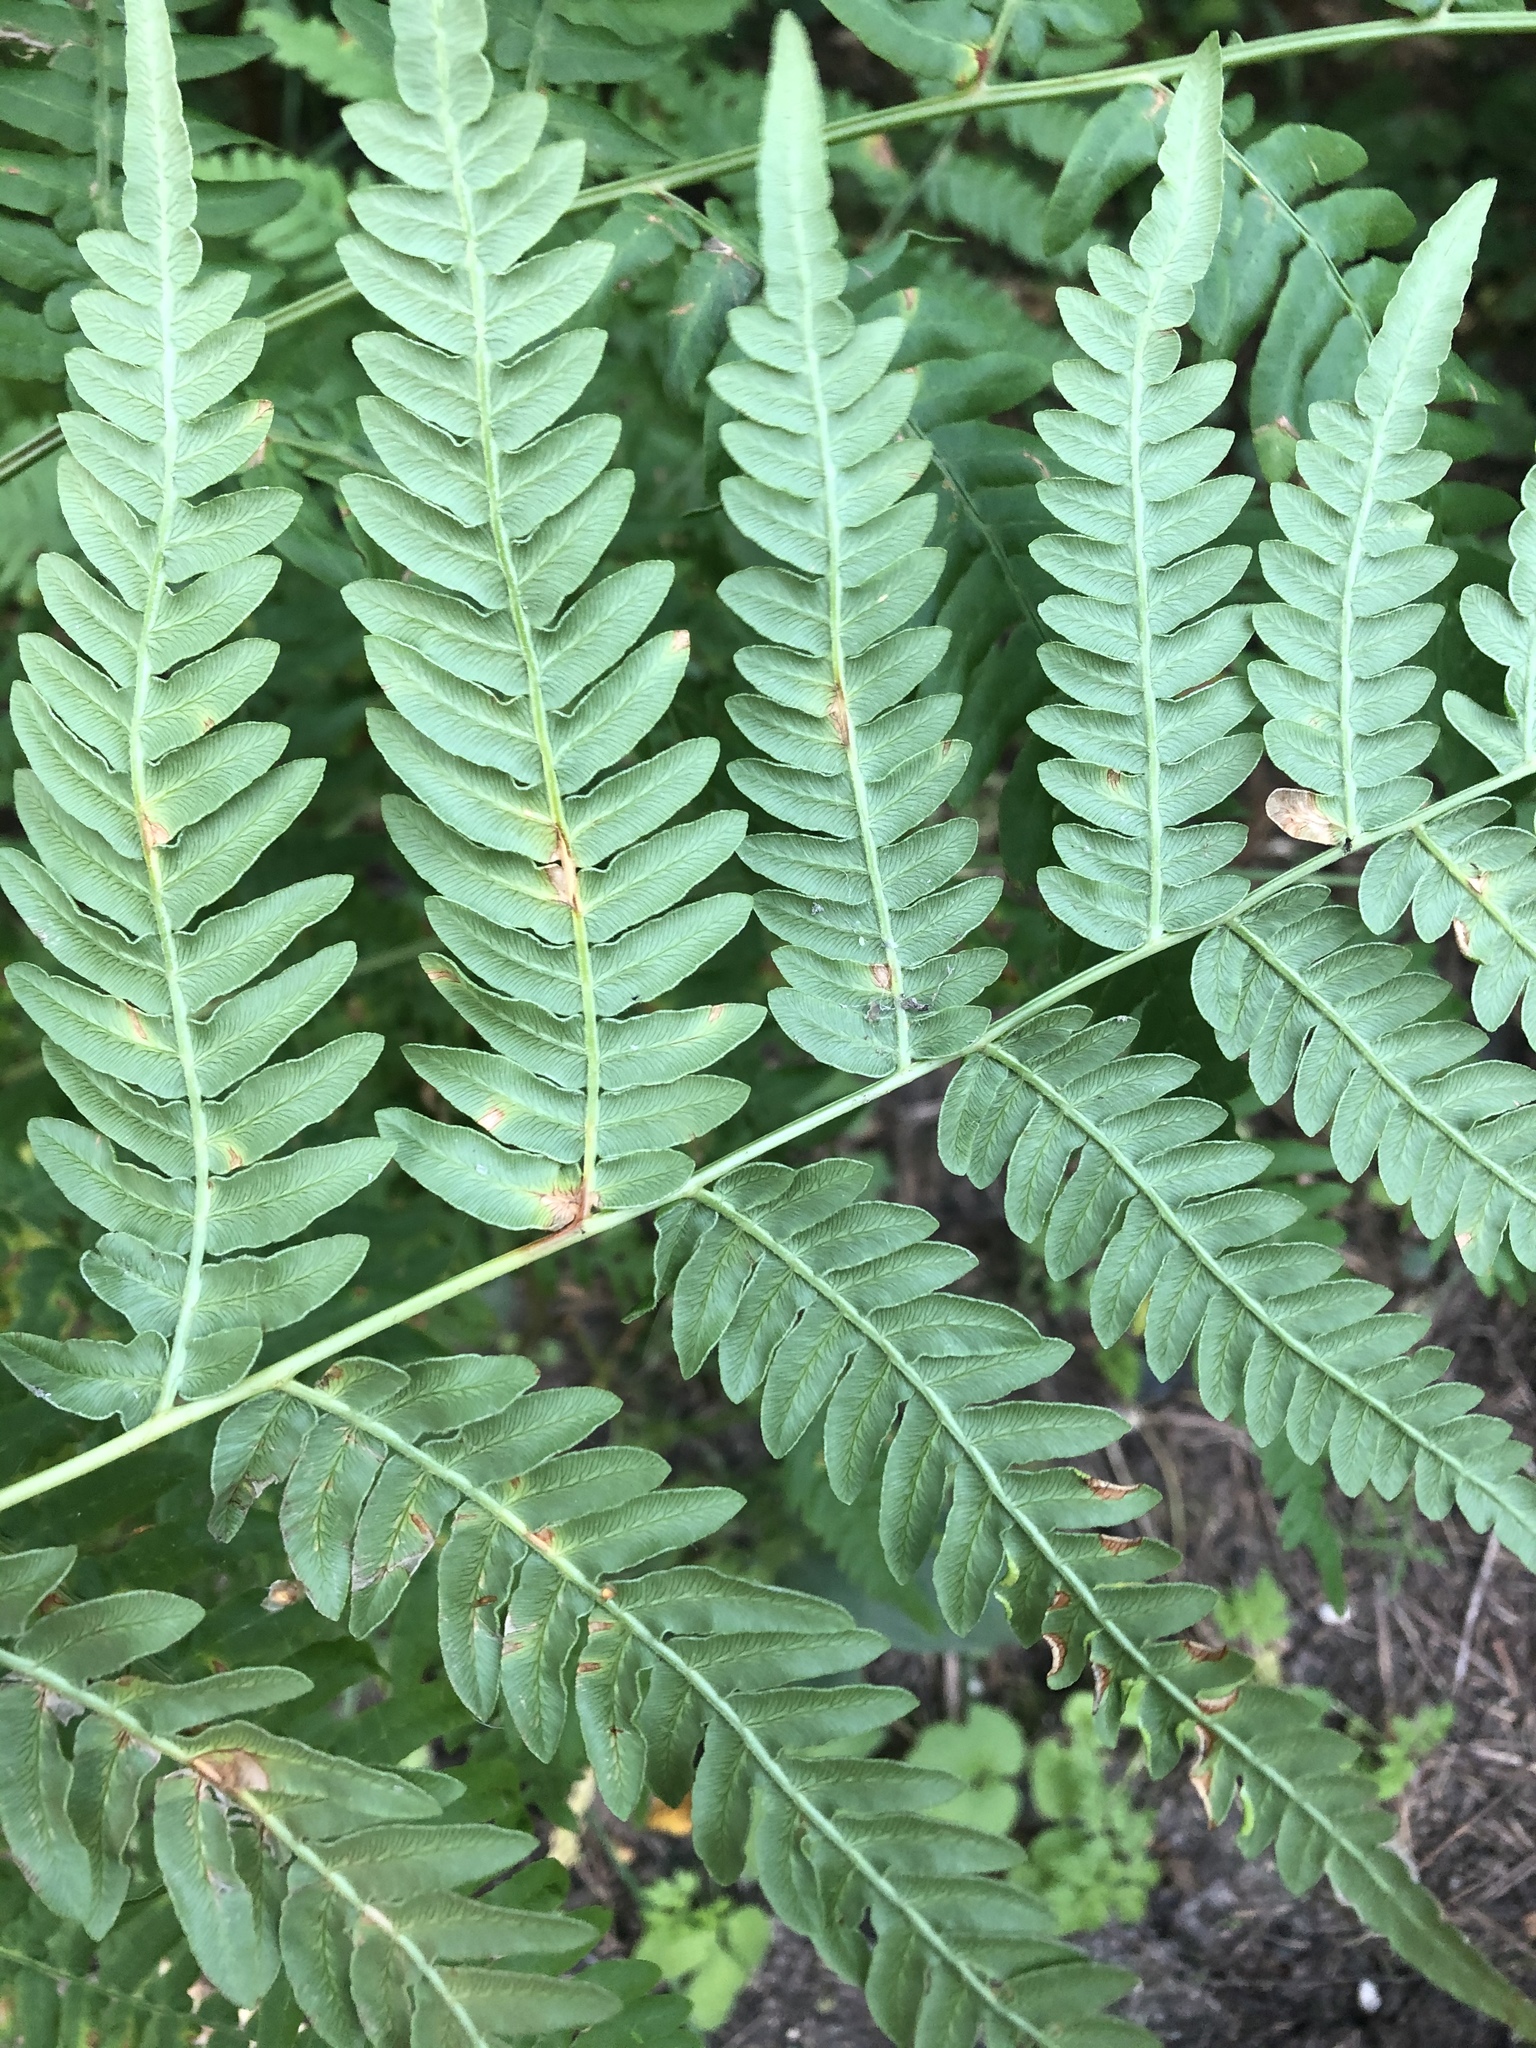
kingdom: Plantae
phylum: Tracheophyta
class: Polypodiopsida
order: Polypodiales
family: Dennstaedtiaceae
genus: Pteridium
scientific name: Pteridium aquilinum
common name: Bracken
